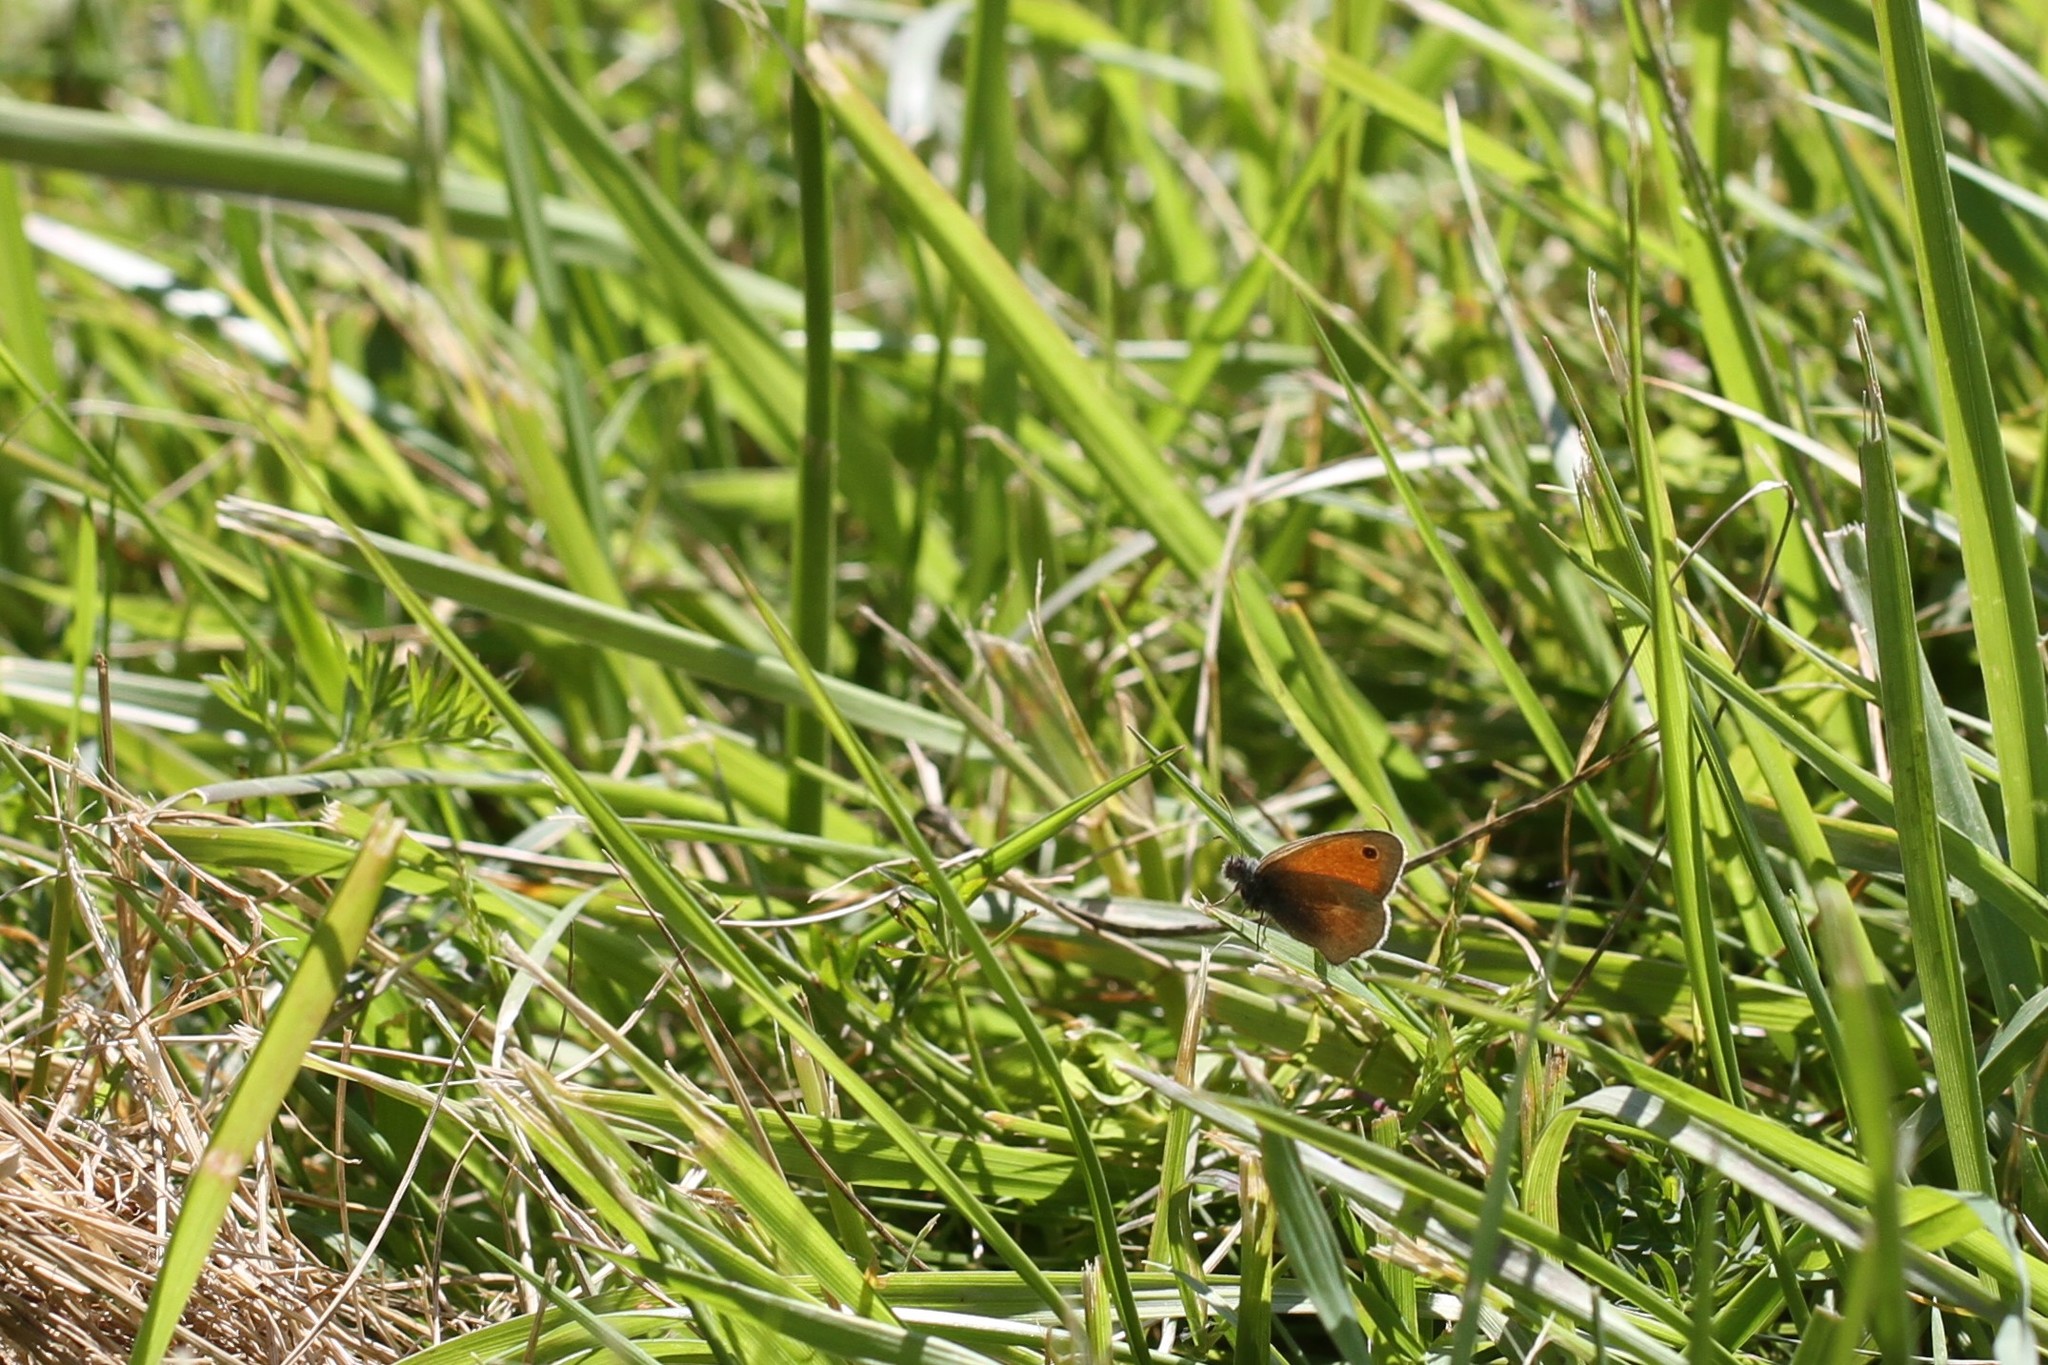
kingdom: Animalia
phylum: Arthropoda
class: Insecta
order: Lepidoptera
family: Nymphalidae
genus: Coenonympha
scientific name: Coenonympha pamphilus
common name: Small heath
